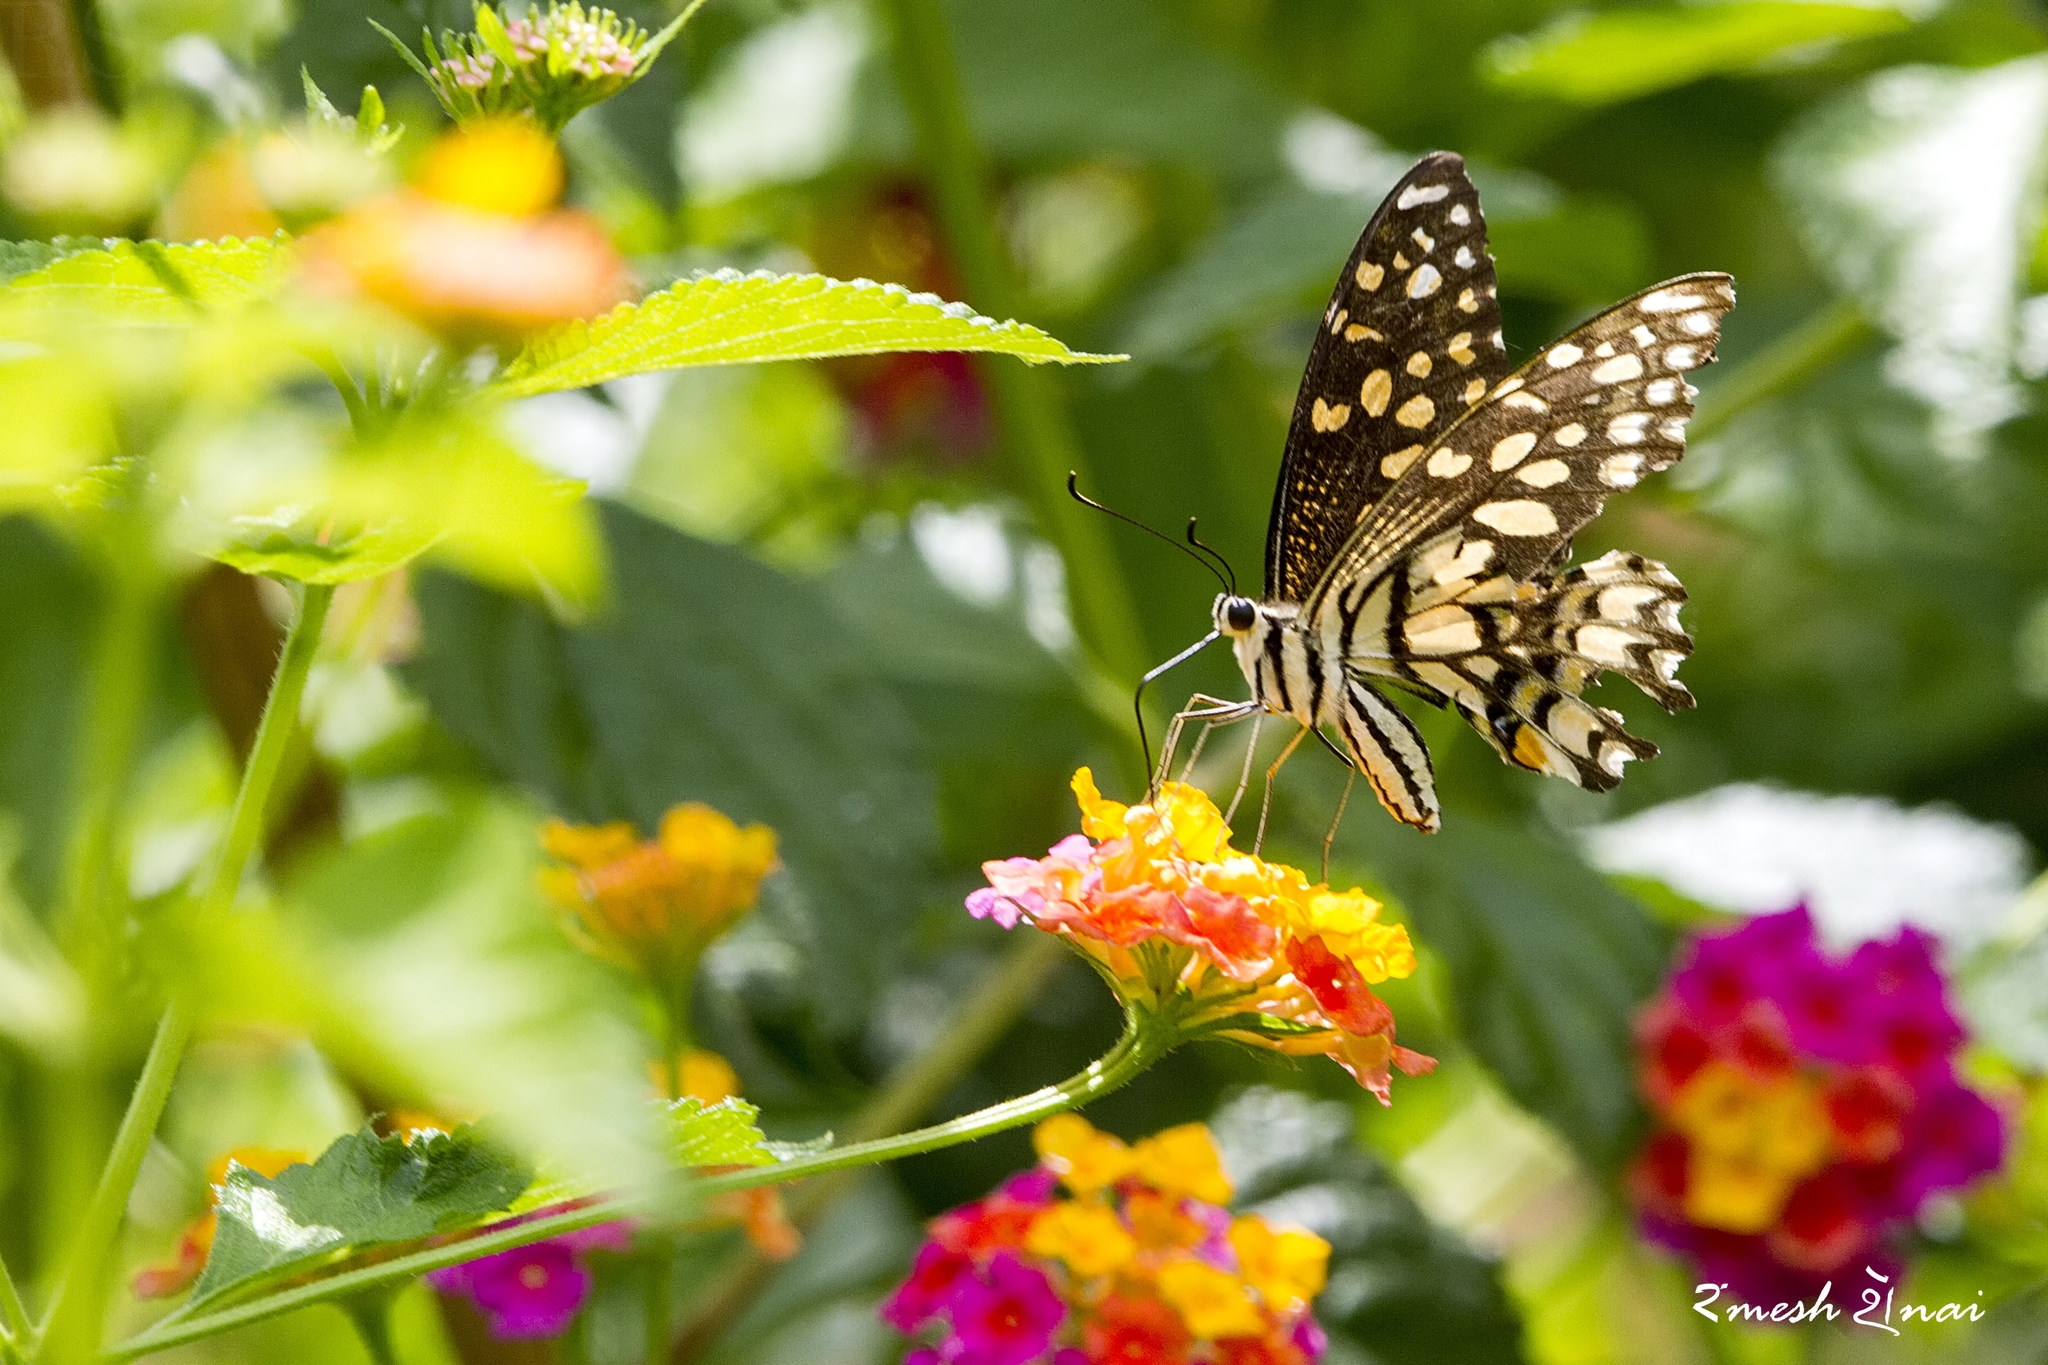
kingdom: Animalia
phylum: Arthropoda
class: Insecta
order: Lepidoptera
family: Papilionidae
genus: Papilio
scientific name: Papilio demoleus
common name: Lime butterfly
